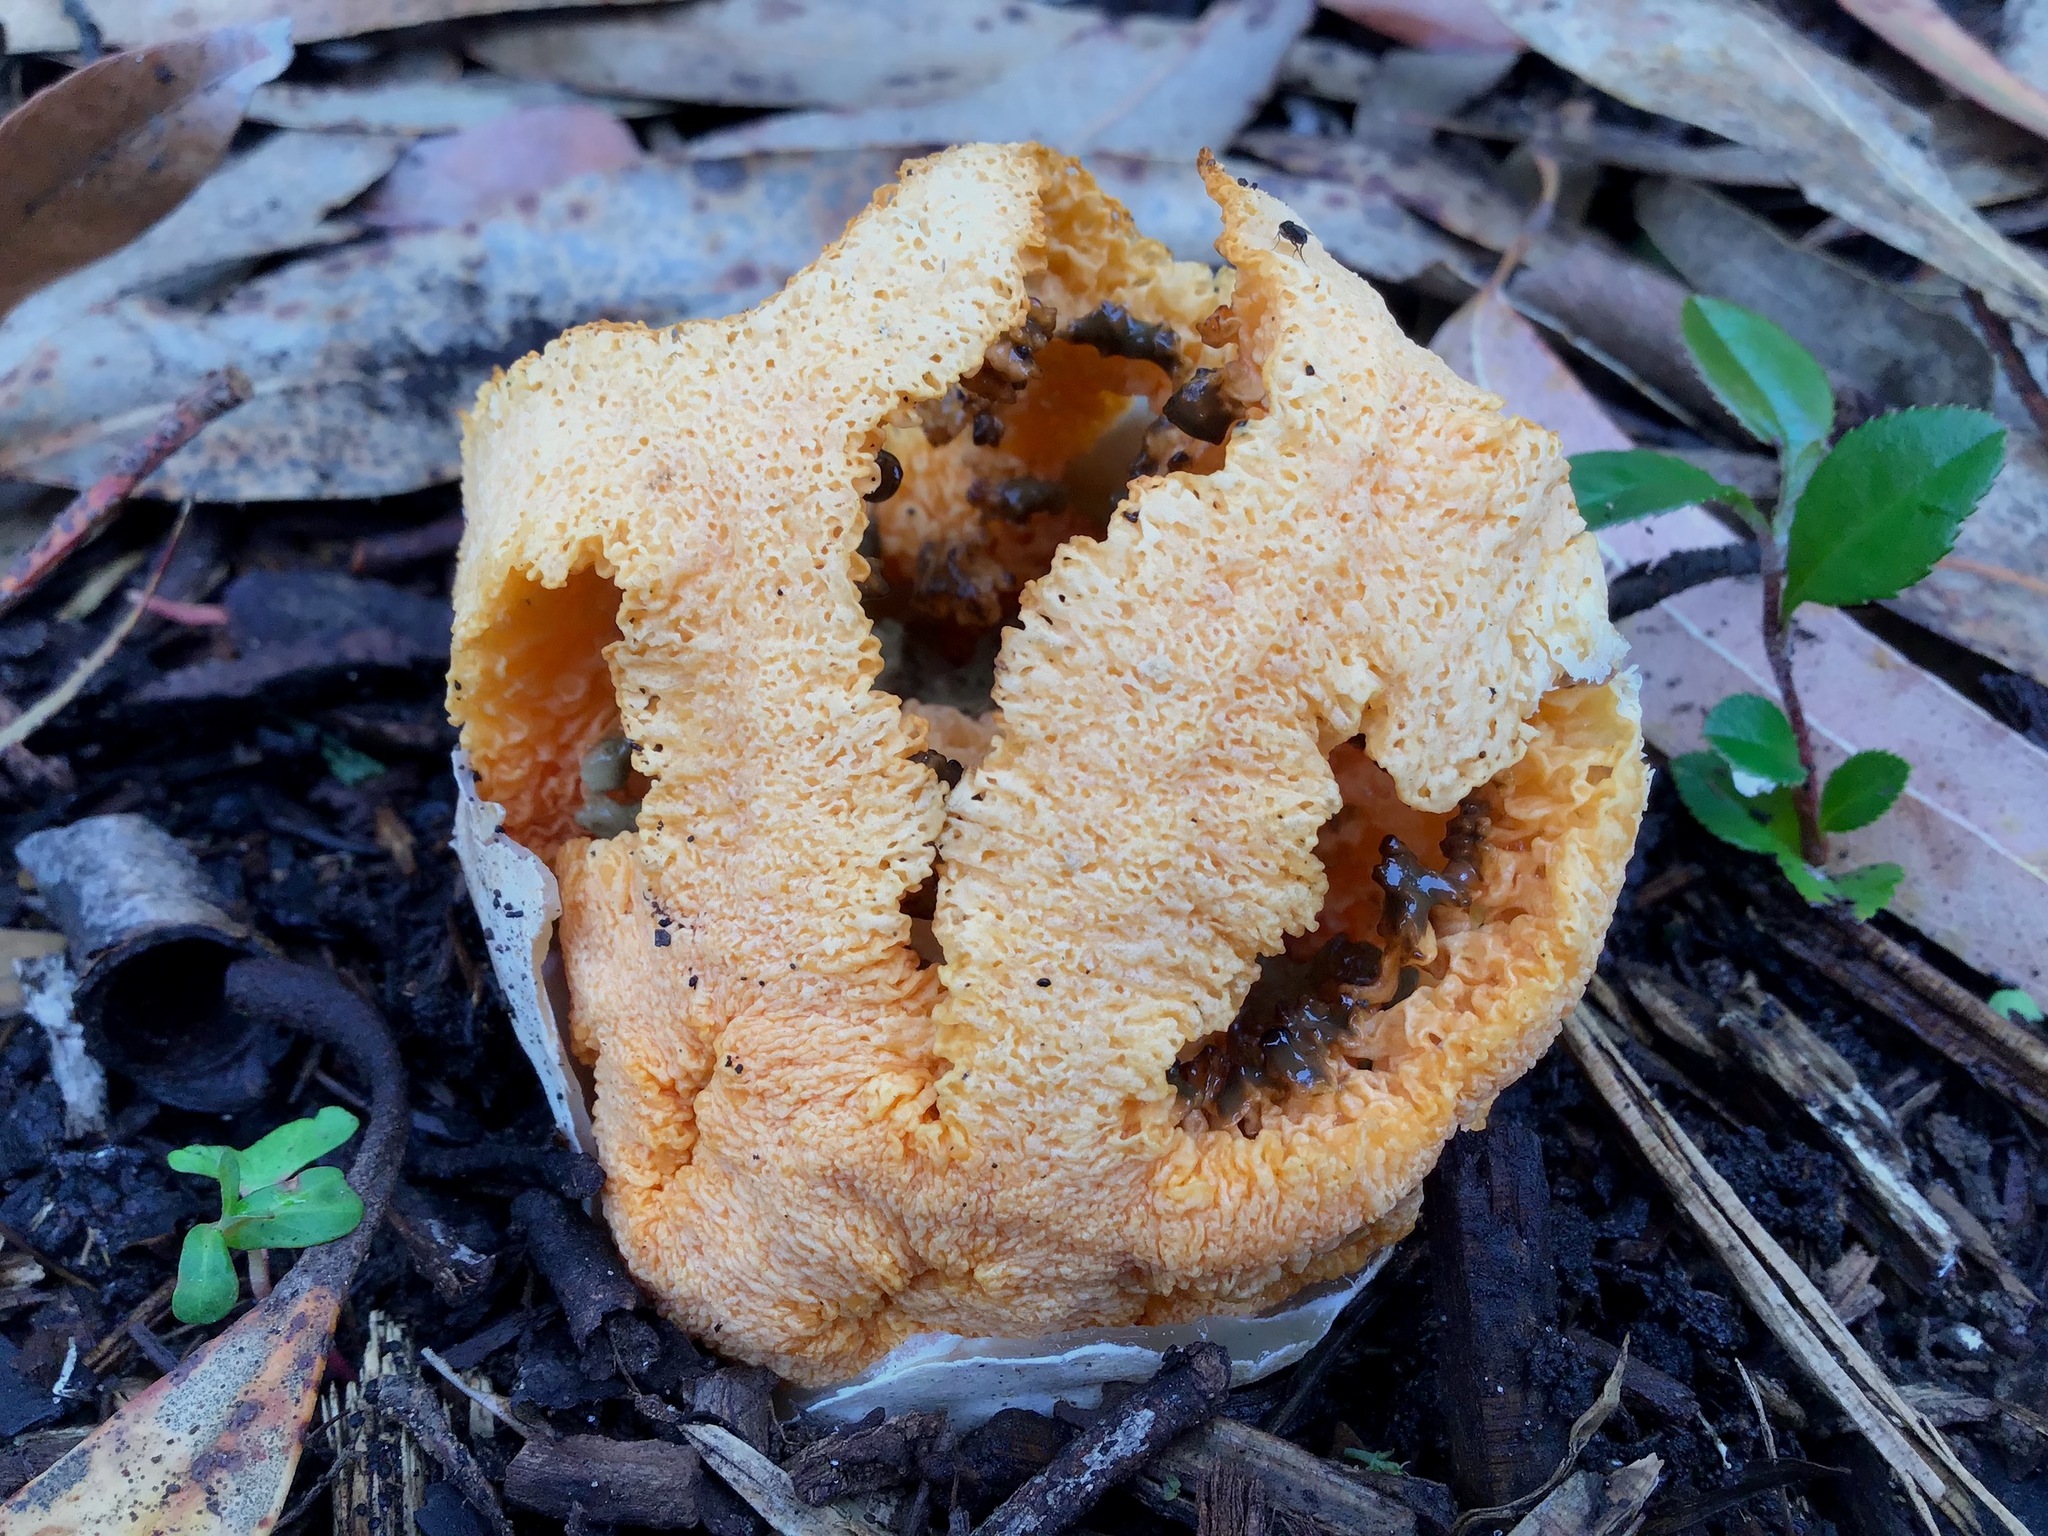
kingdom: Fungi
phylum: Basidiomycota
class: Agaricomycetes
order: Phallales
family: Phallaceae
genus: Clathrus
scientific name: Clathrus ruber
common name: Red cage
